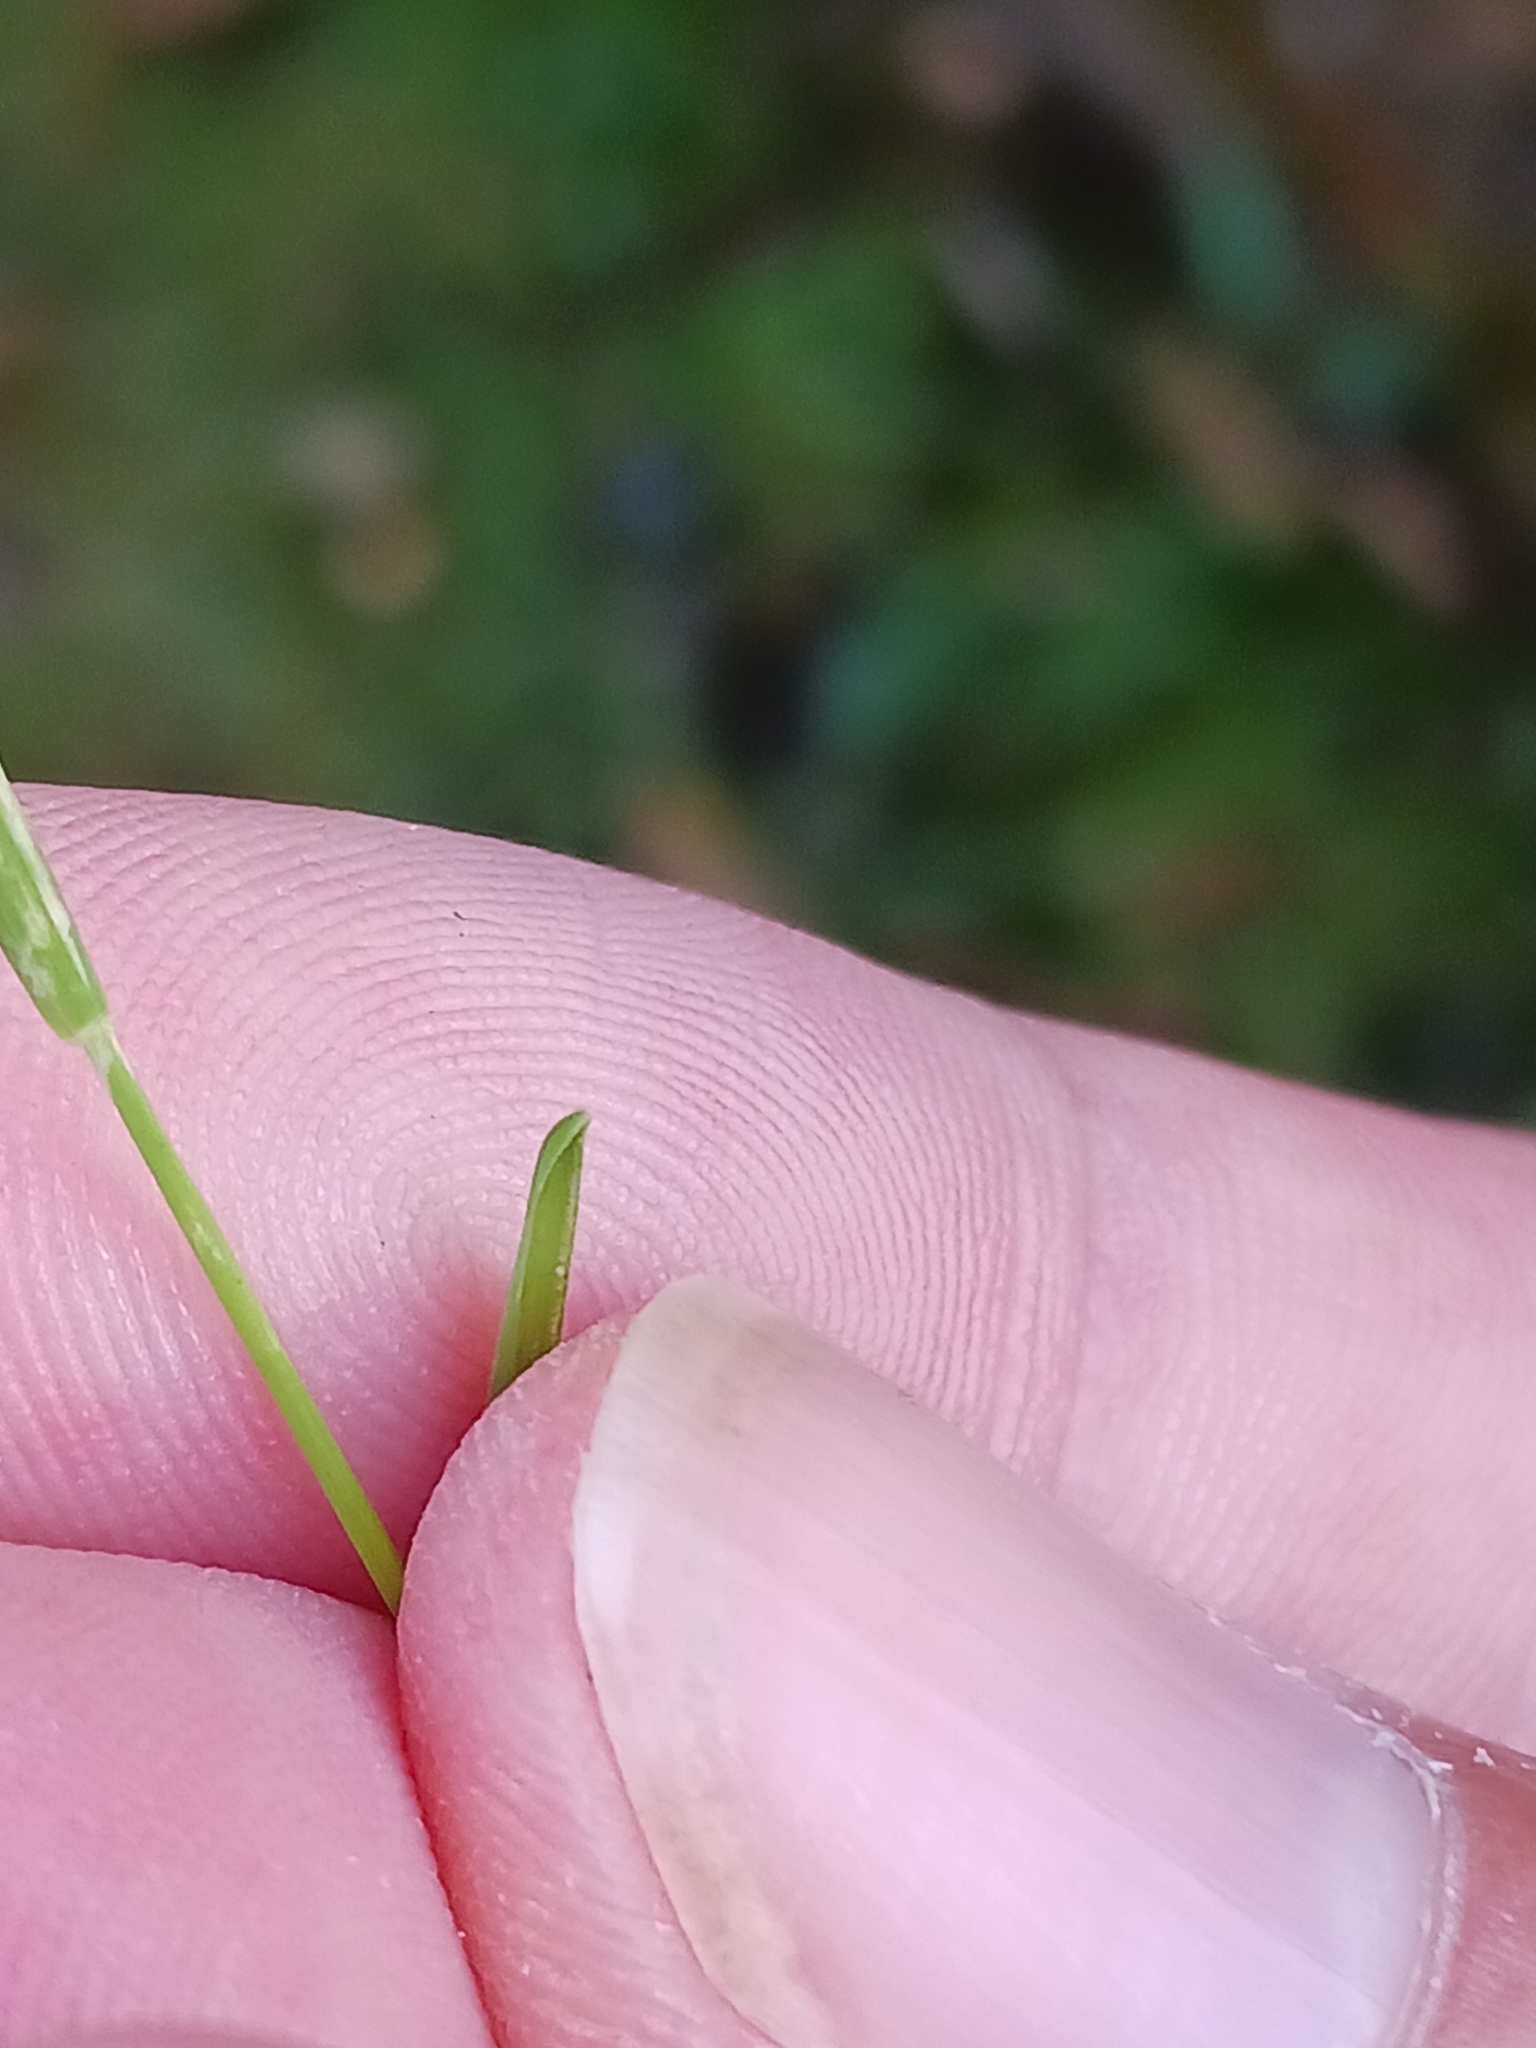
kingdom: Plantae
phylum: Tracheophyta
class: Liliopsida
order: Poales
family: Poaceae
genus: Poa
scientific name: Poa annua
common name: Annual bluegrass
